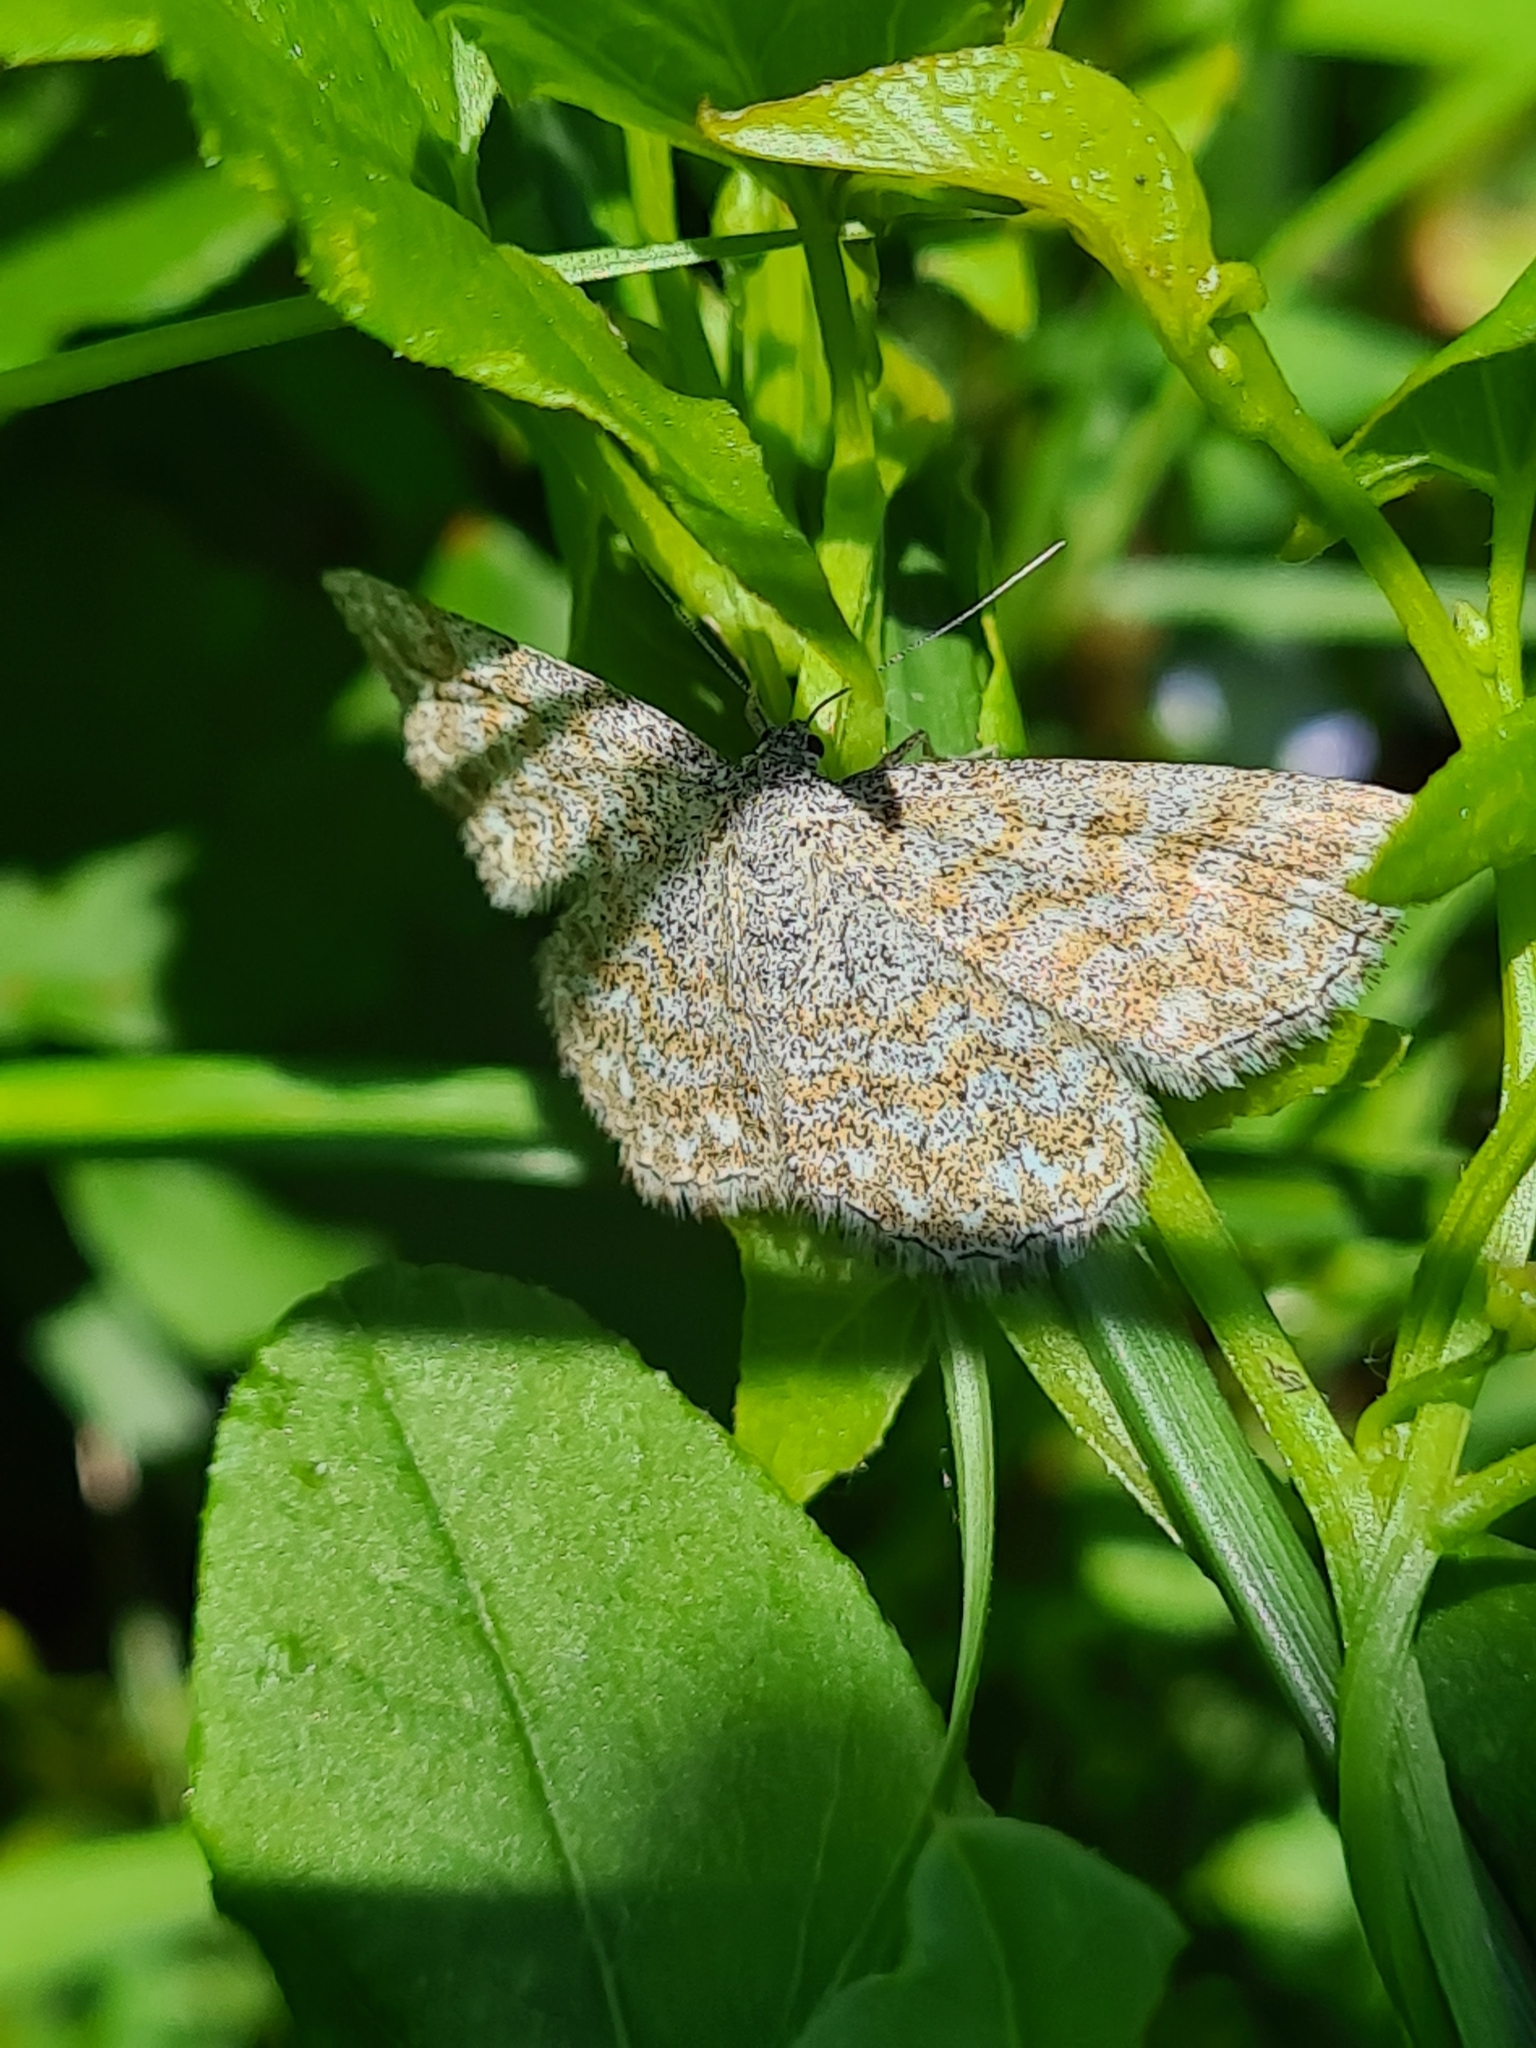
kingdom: Animalia
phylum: Arthropoda
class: Insecta
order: Lepidoptera
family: Geometridae
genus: Scopula
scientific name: Scopula immorata
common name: Lewes wave
